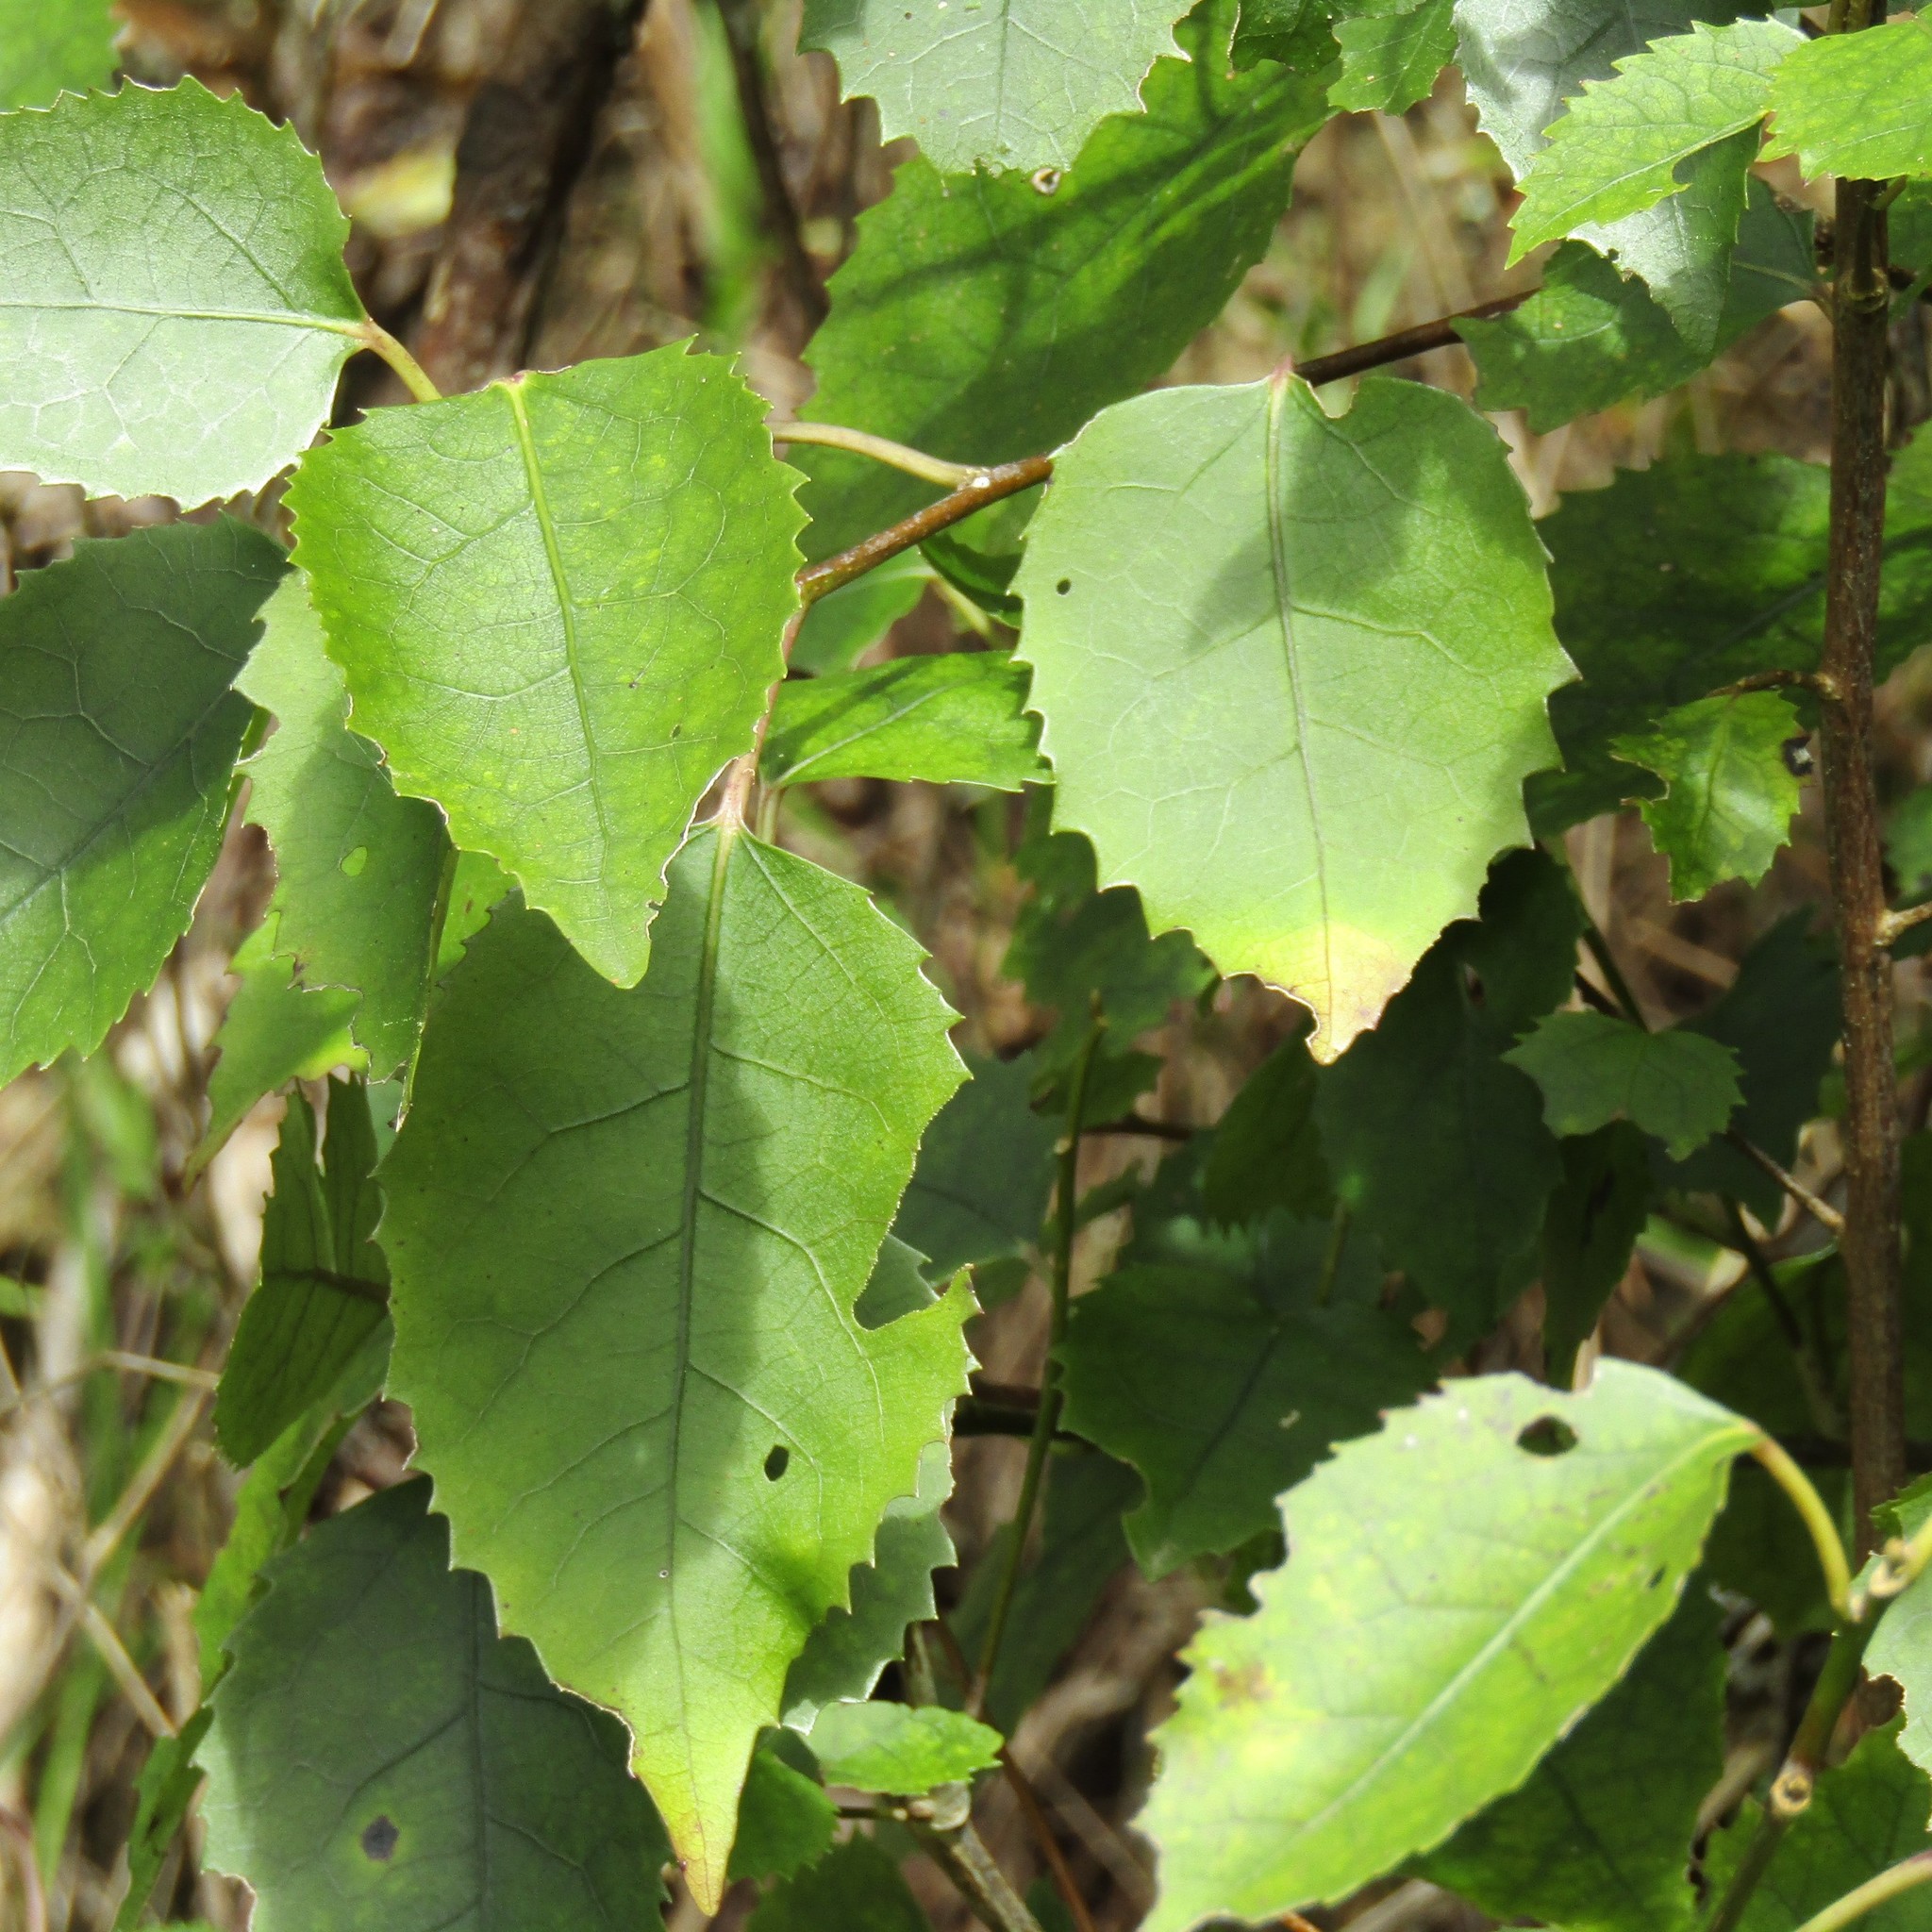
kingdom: Plantae
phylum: Tracheophyta
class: Magnoliopsida
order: Malvales
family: Malvaceae
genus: Hoheria
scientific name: Hoheria populnea
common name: Lacebark
